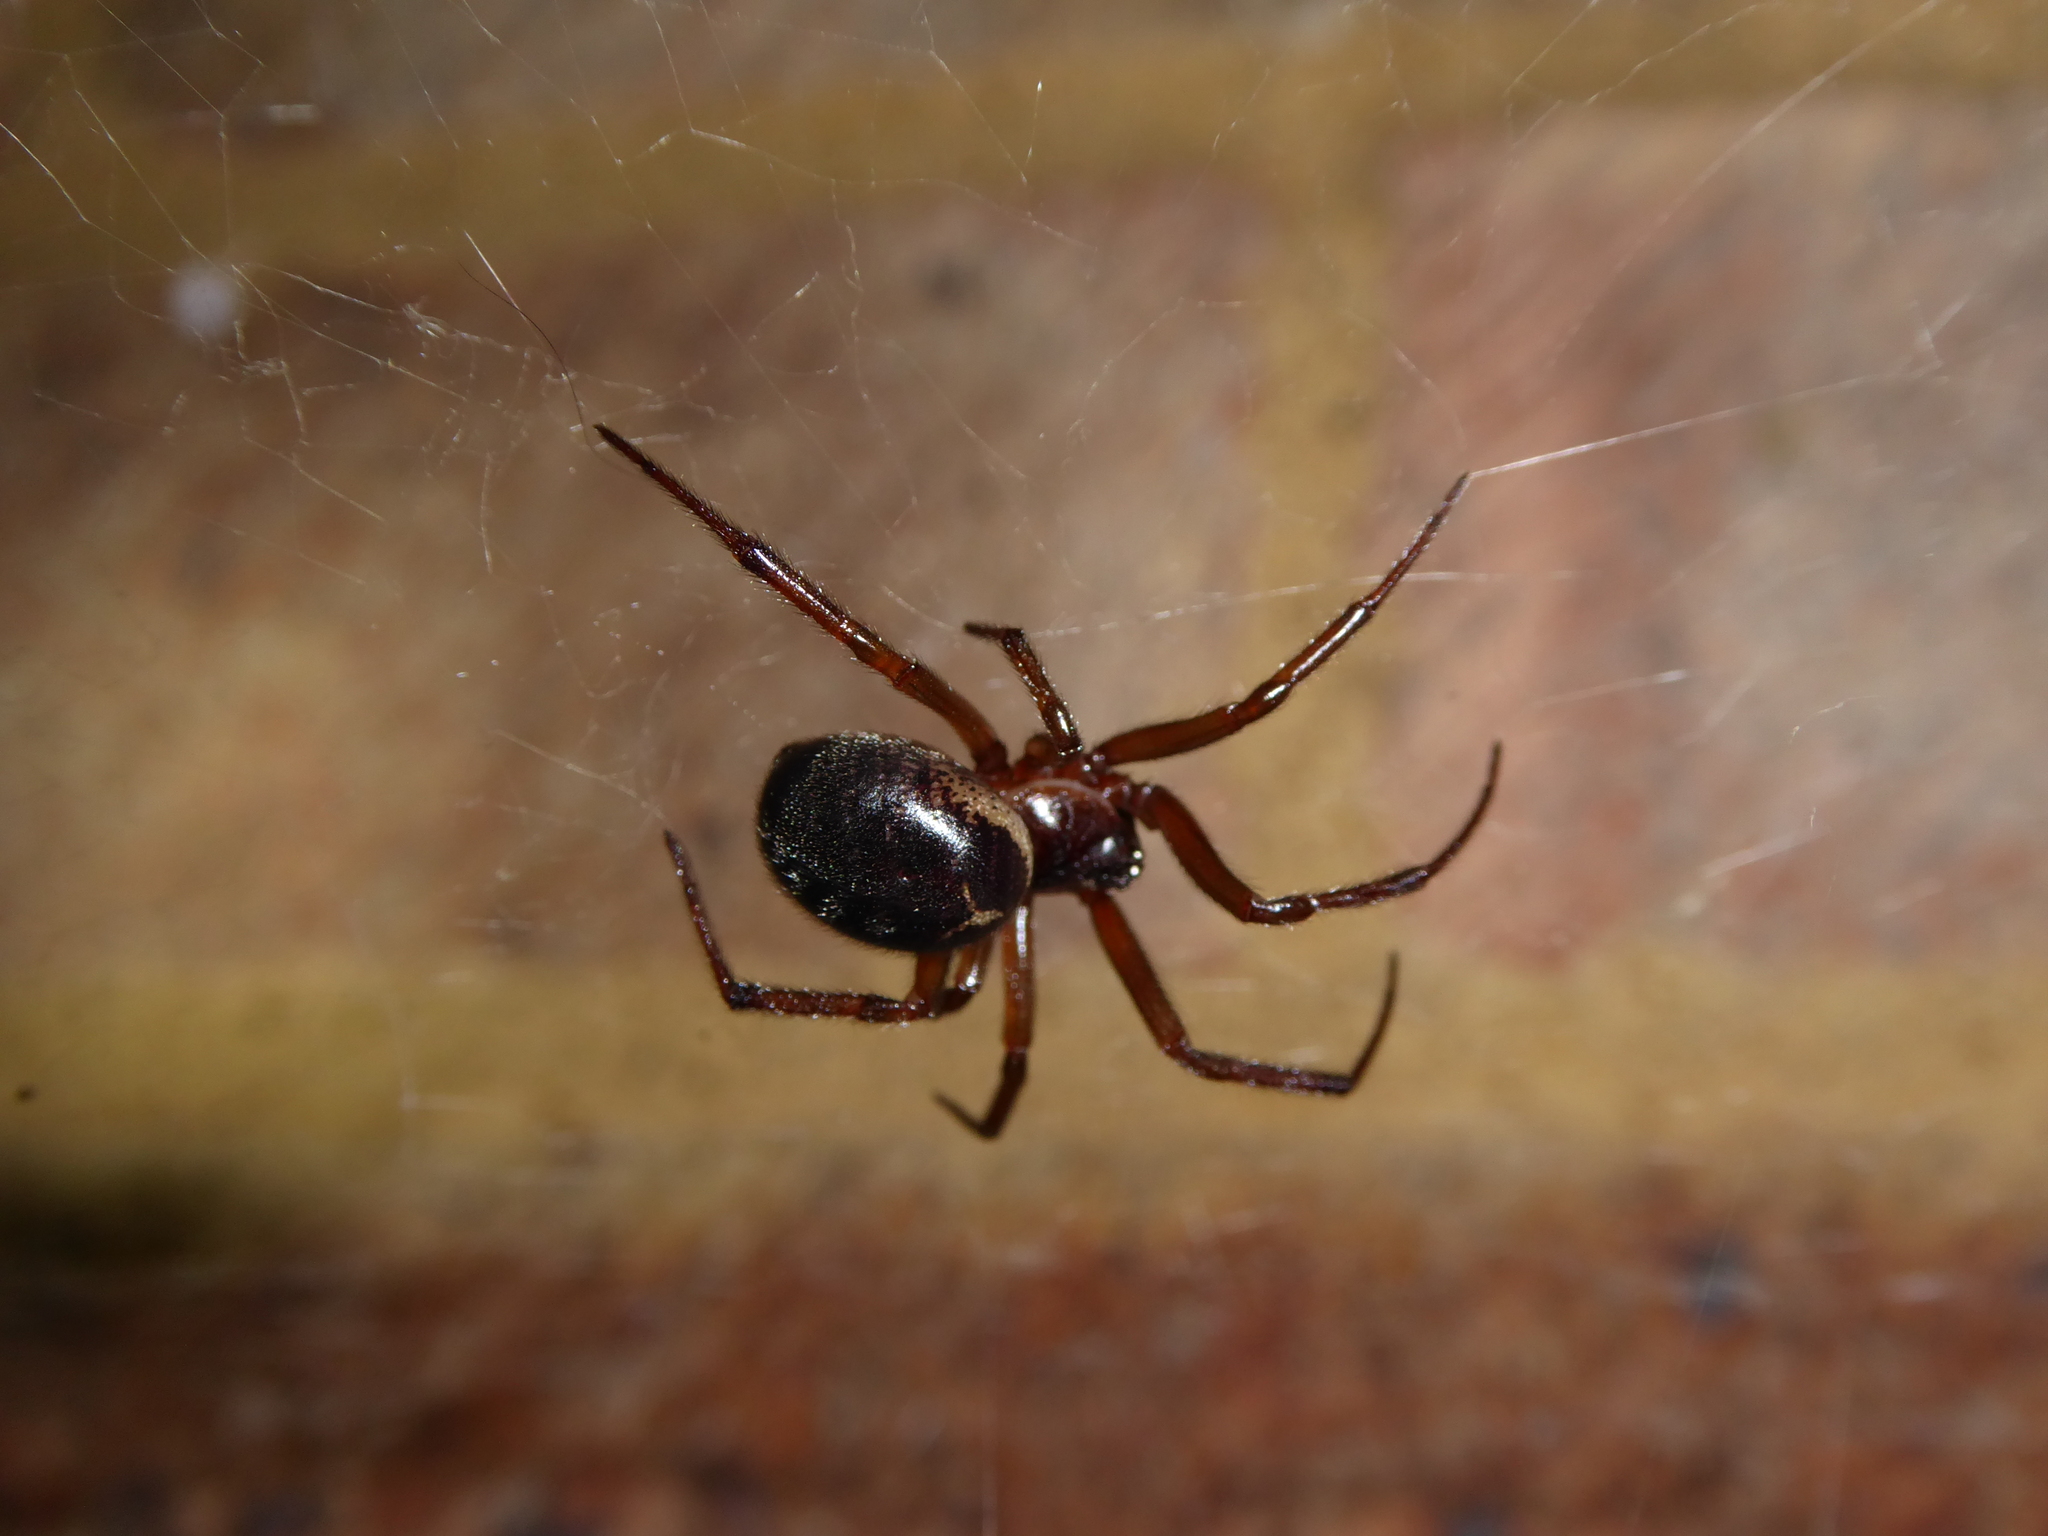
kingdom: Animalia
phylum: Arthropoda
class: Arachnida
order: Araneae
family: Theridiidae
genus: Steatoda
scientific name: Steatoda nobilis
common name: Cobweb weaver
